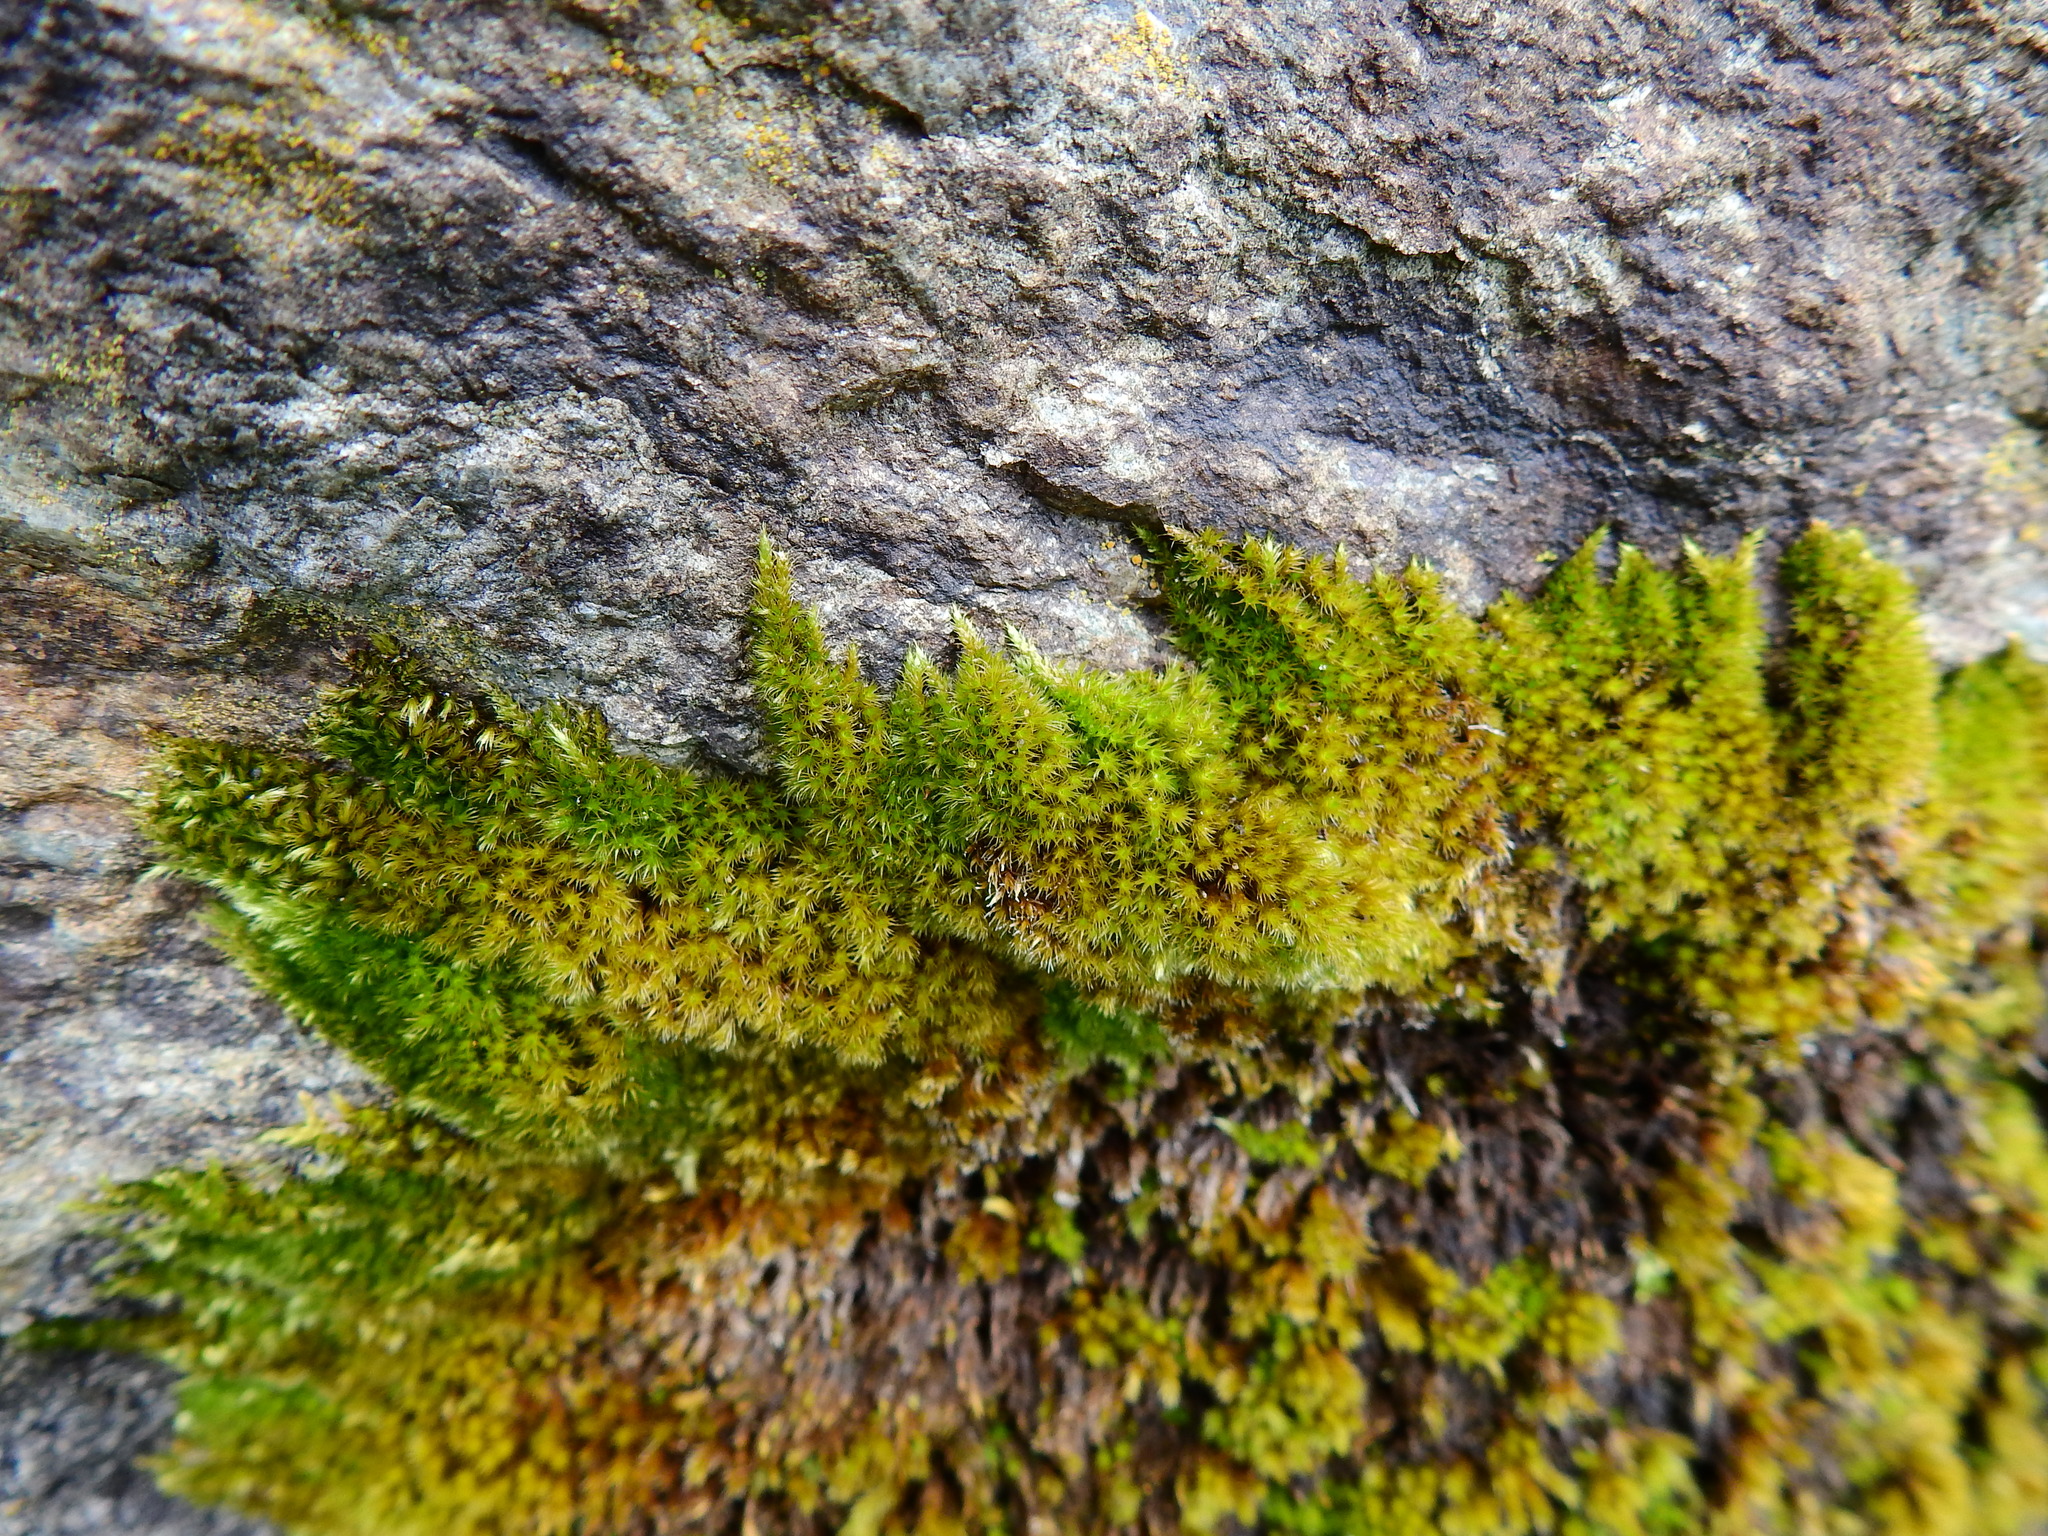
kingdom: Plantae
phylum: Bryophyta
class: Bryopsida
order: Hypnales
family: Brachytheciaceae
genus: Homalothecium
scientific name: Homalothecium sericeum
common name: Silky wall feather-moss
